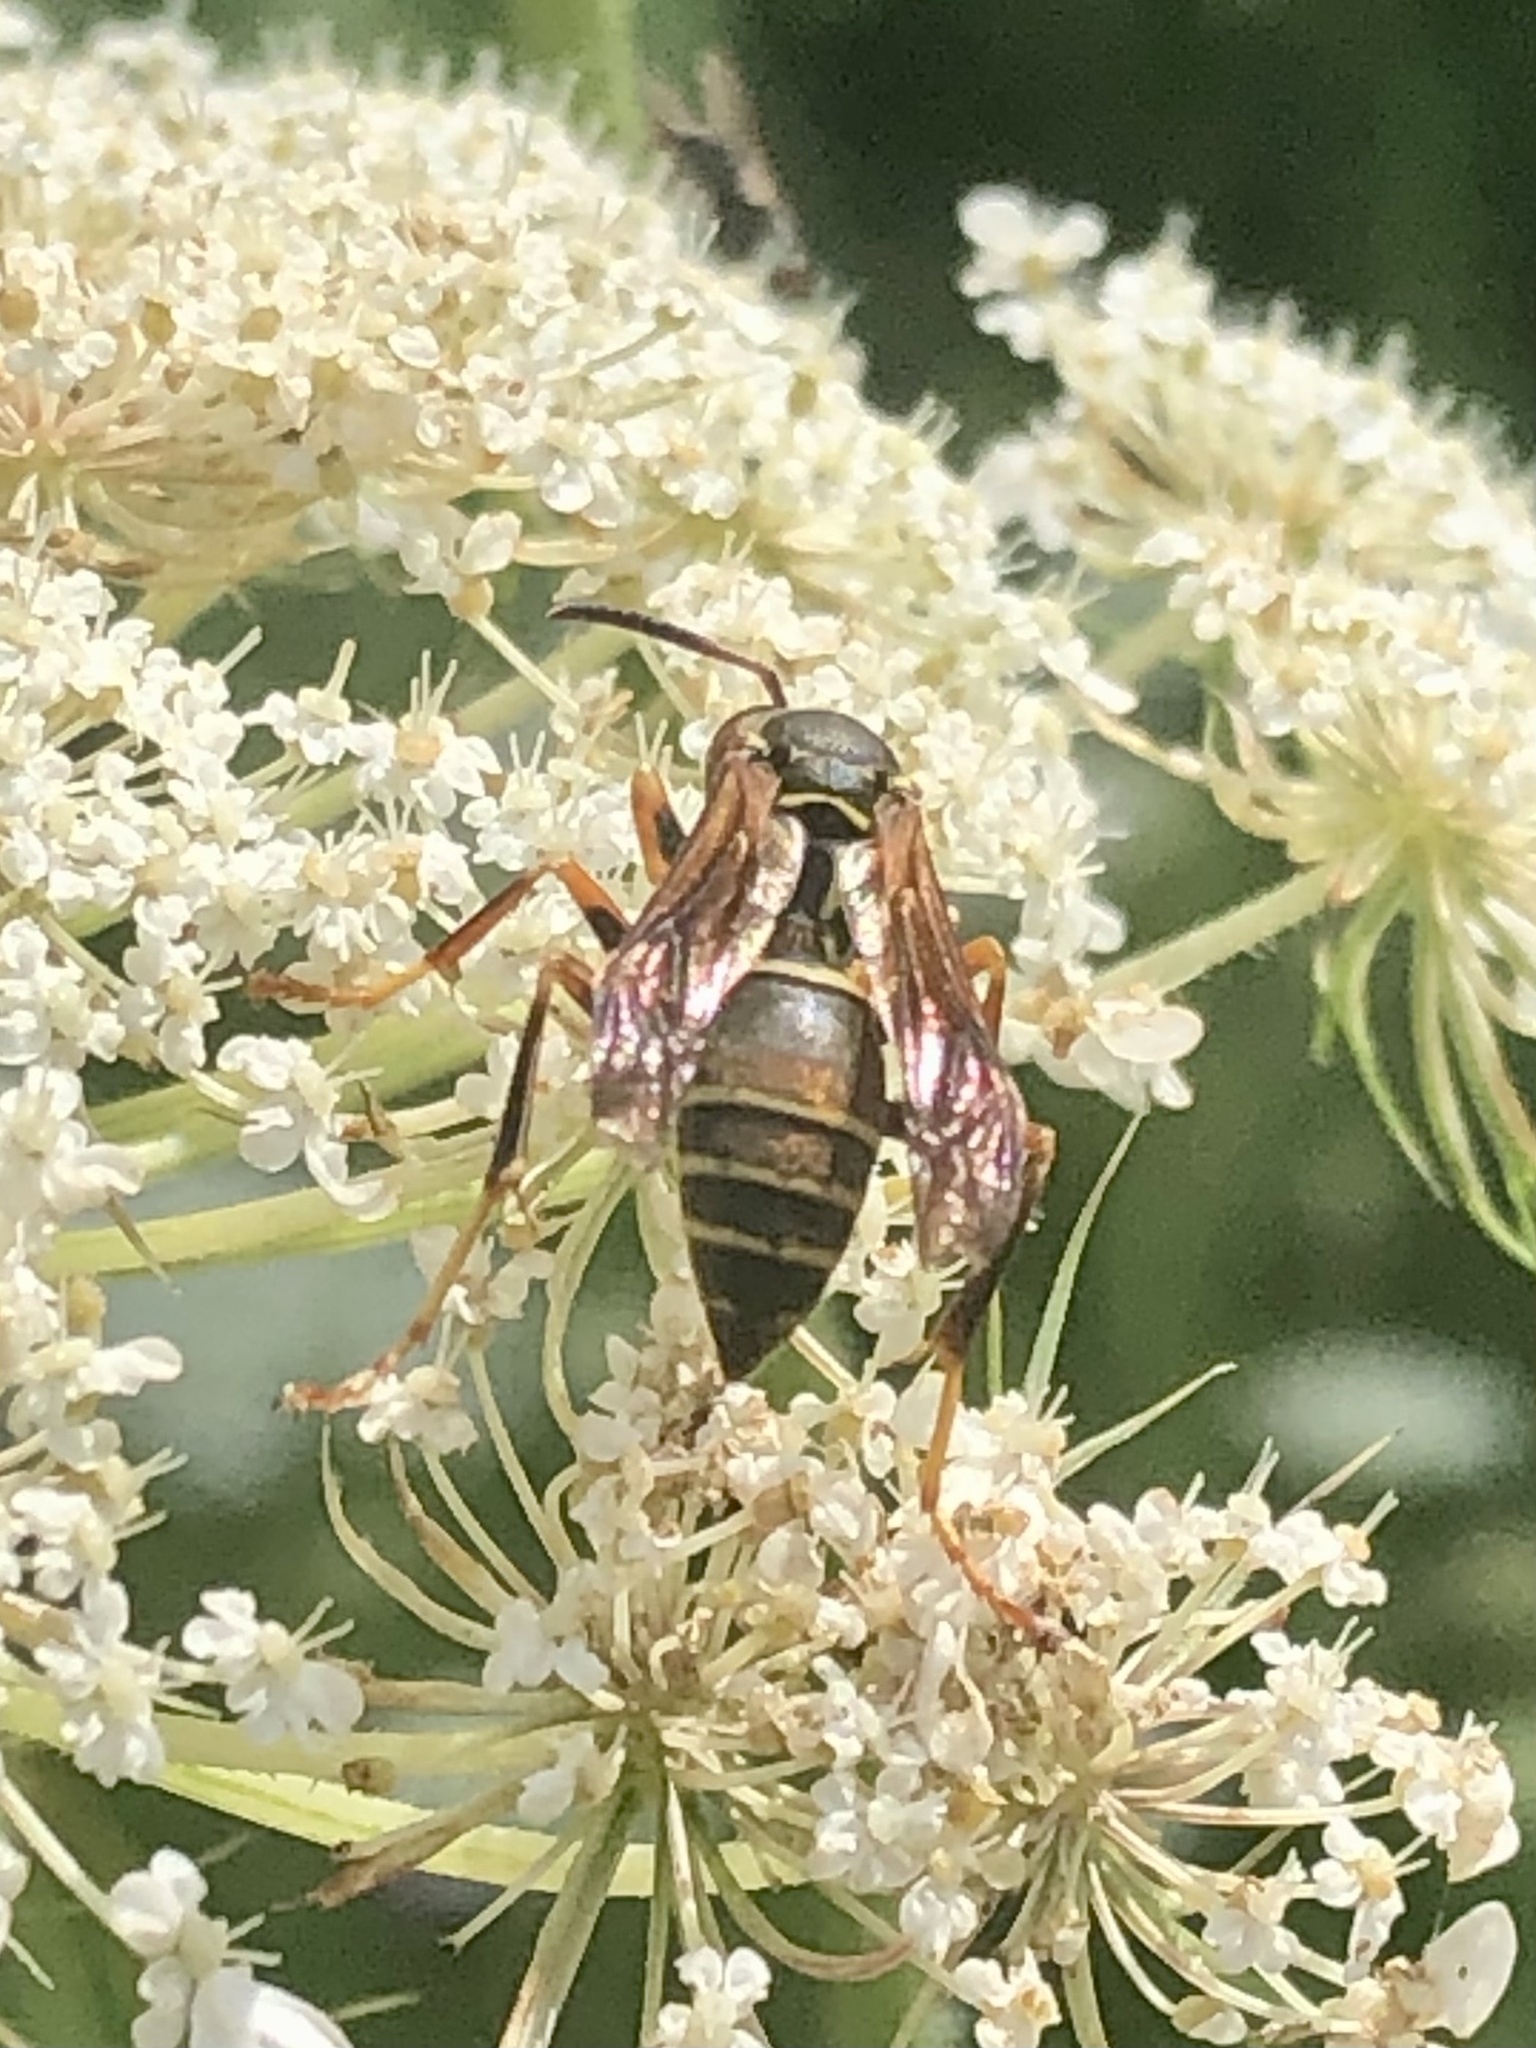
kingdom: Animalia
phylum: Arthropoda
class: Insecta
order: Hymenoptera
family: Eumenidae
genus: Polistes
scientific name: Polistes fuscatus
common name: Dark paper wasp
